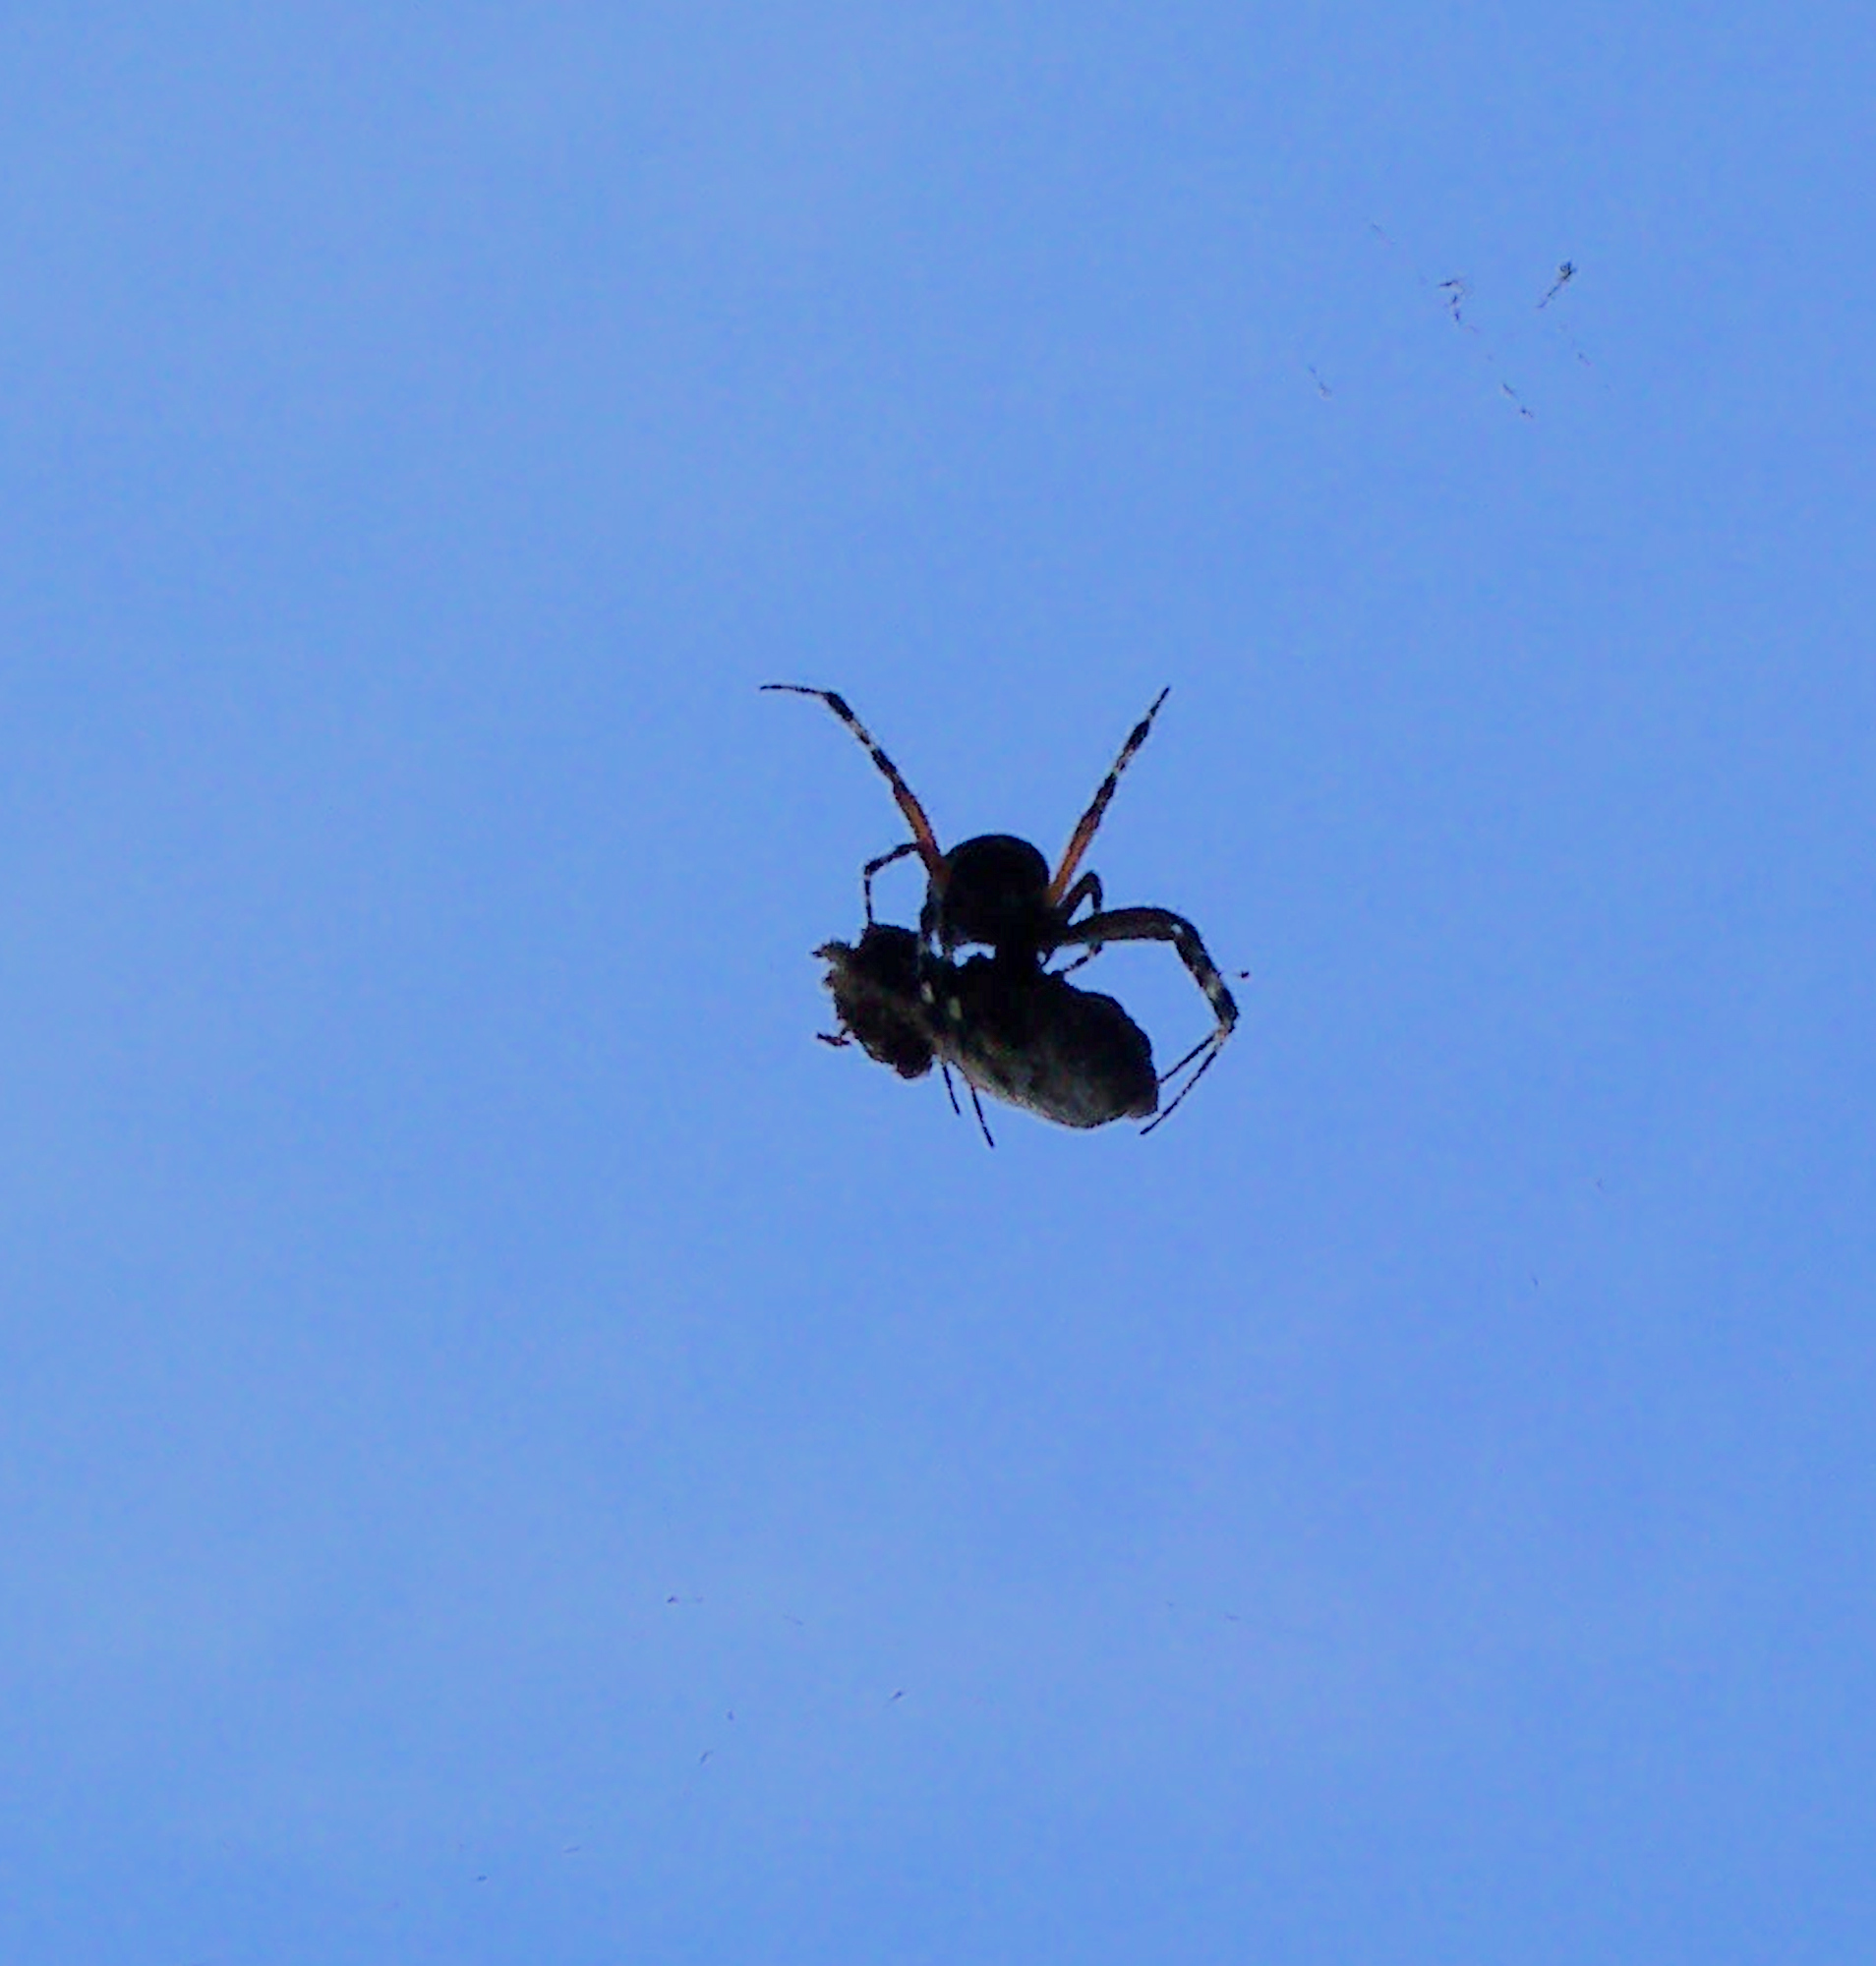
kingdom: Animalia
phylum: Arthropoda
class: Arachnida
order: Araneae
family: Araneidae
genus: Neoscona
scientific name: Neoscona oaxacensis
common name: Orb weavers
